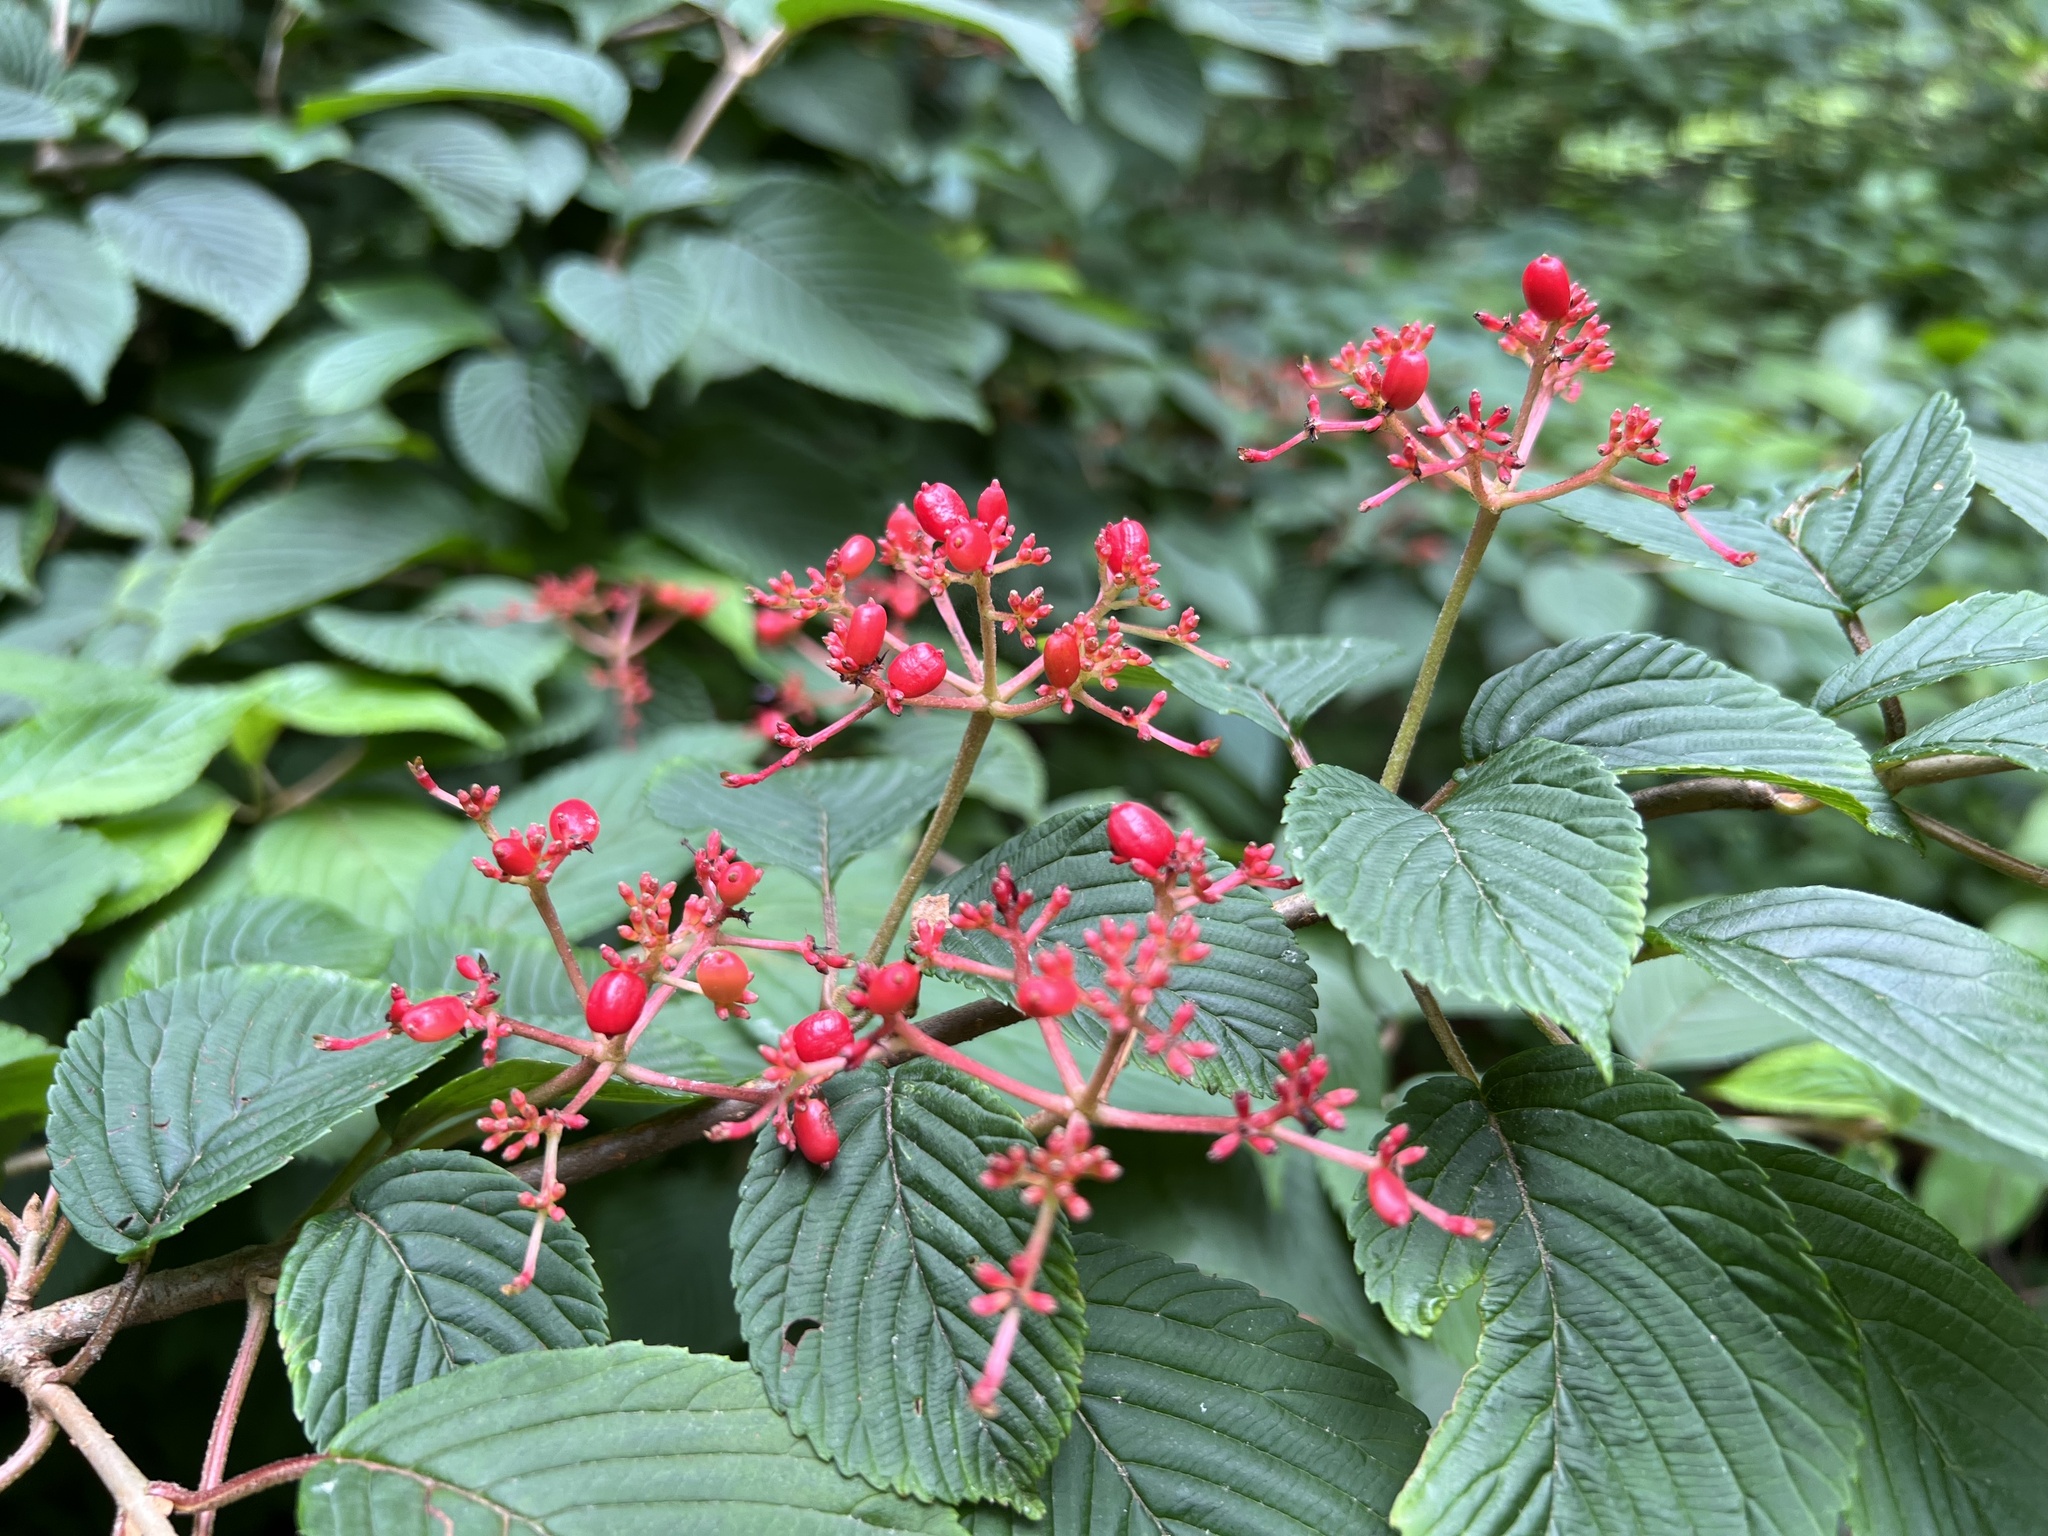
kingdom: Plantae
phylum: Tracheophyta
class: Magnoliopsida
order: Dipsacales
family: Viburnaceae
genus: Viburnum
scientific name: Viburnum plicatum
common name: Japanese snowball
